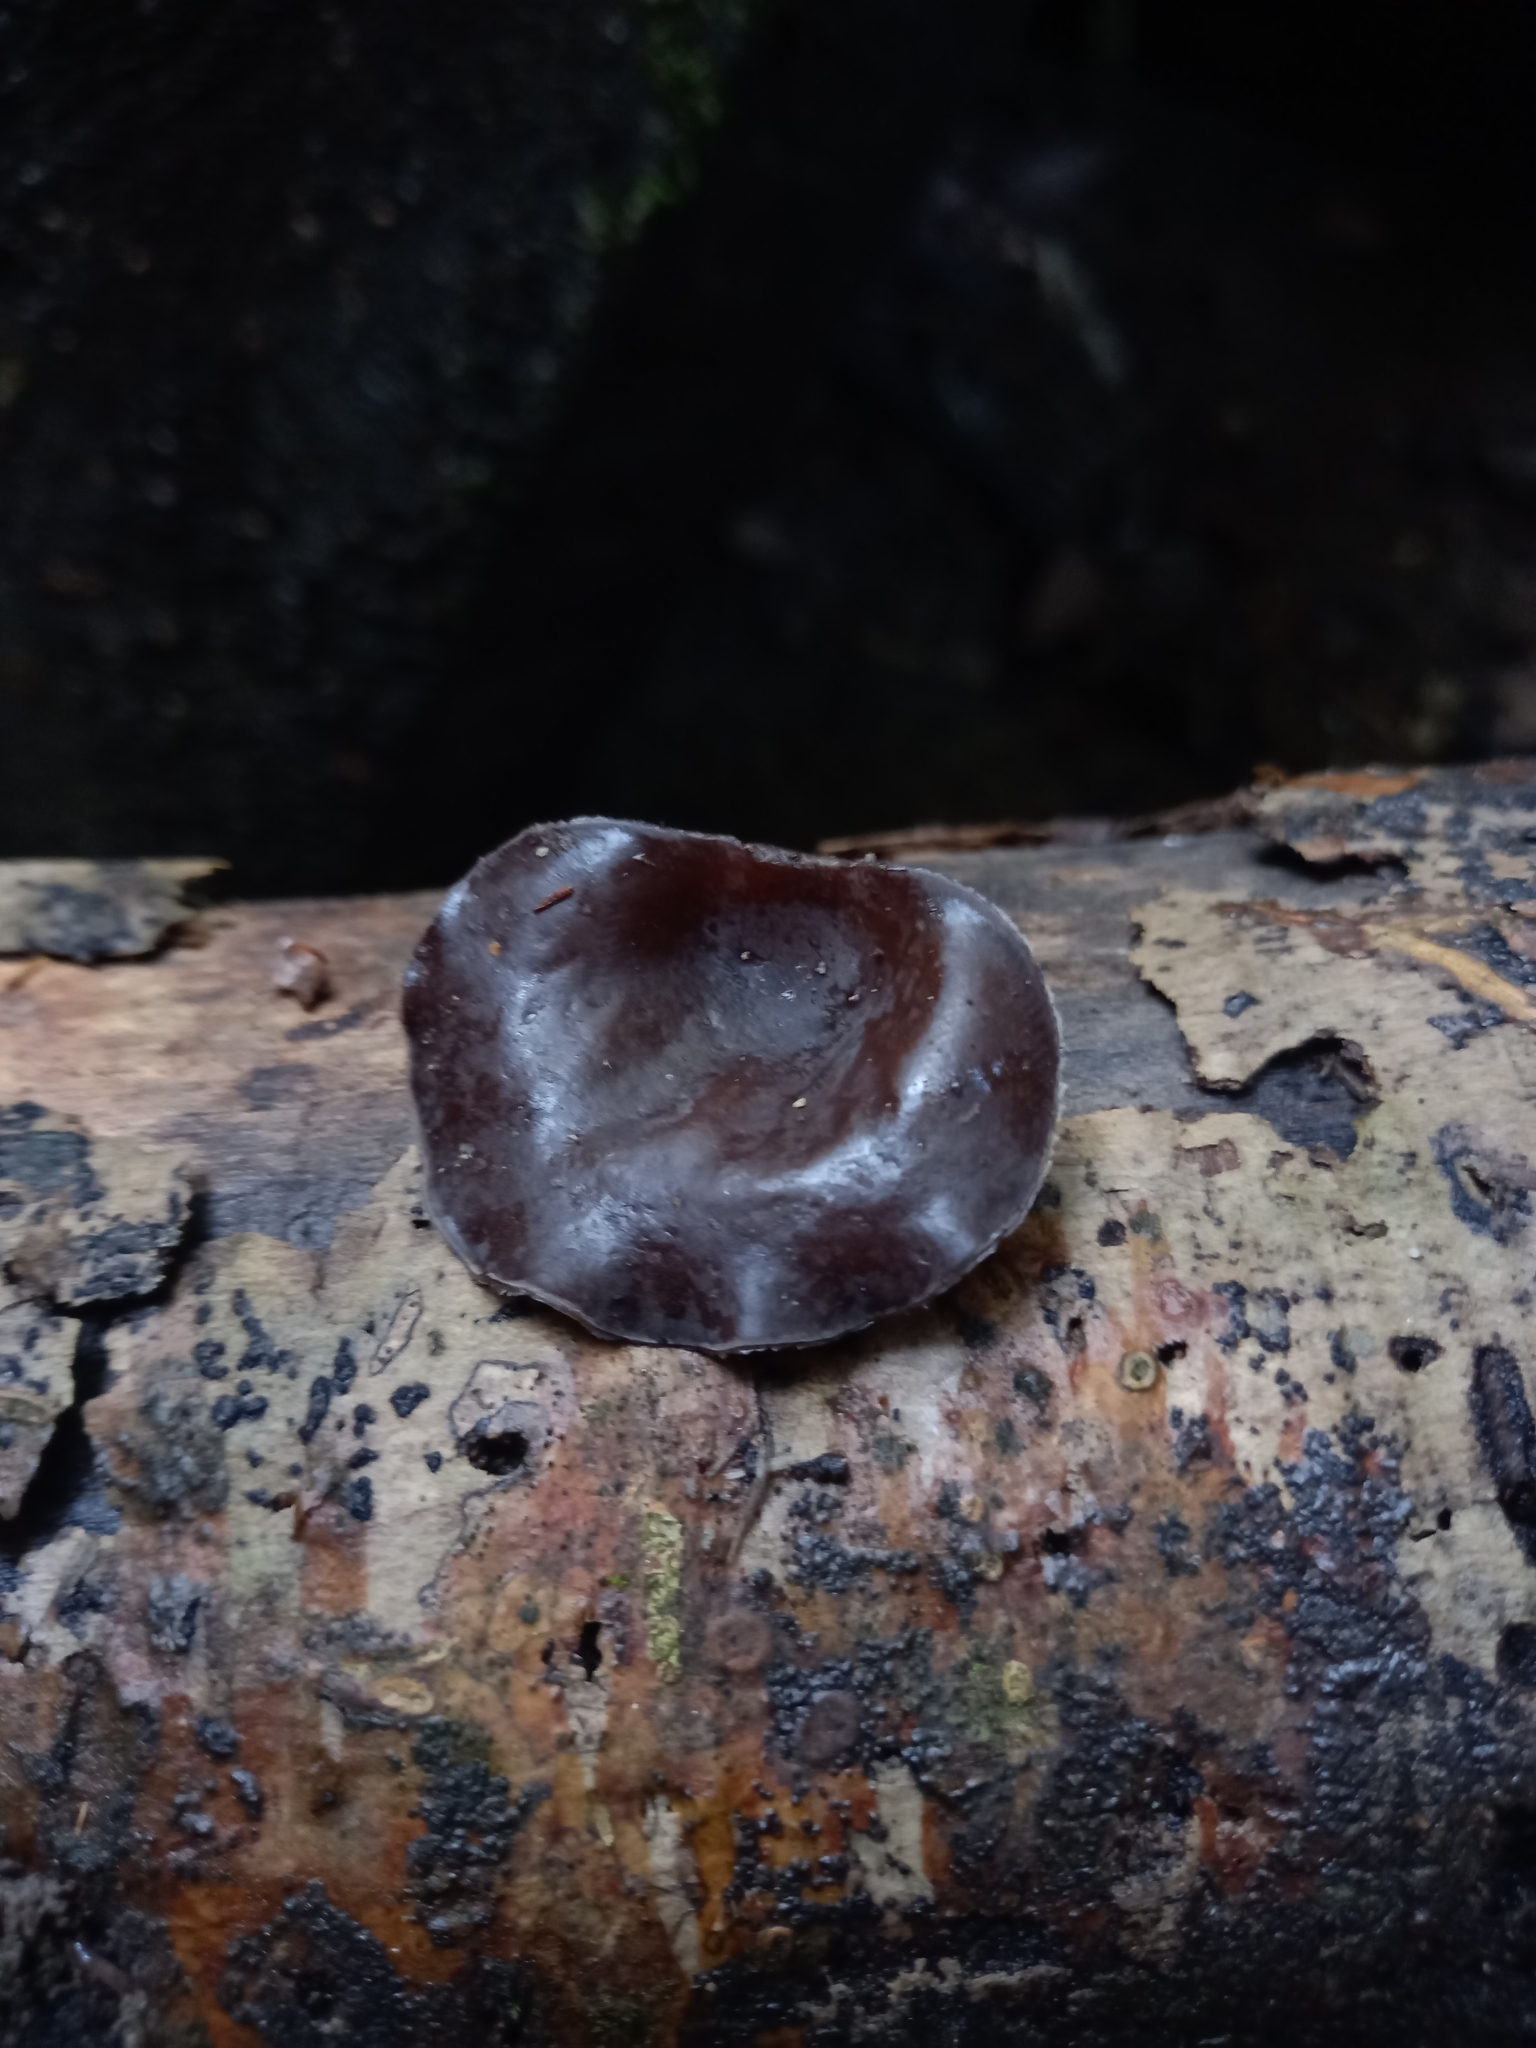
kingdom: Fungi
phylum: Basidiomycota
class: Agaricomycetes
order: Auriculariales
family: Auriculariaceae
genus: Auricularia
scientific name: Auricularia cornea
